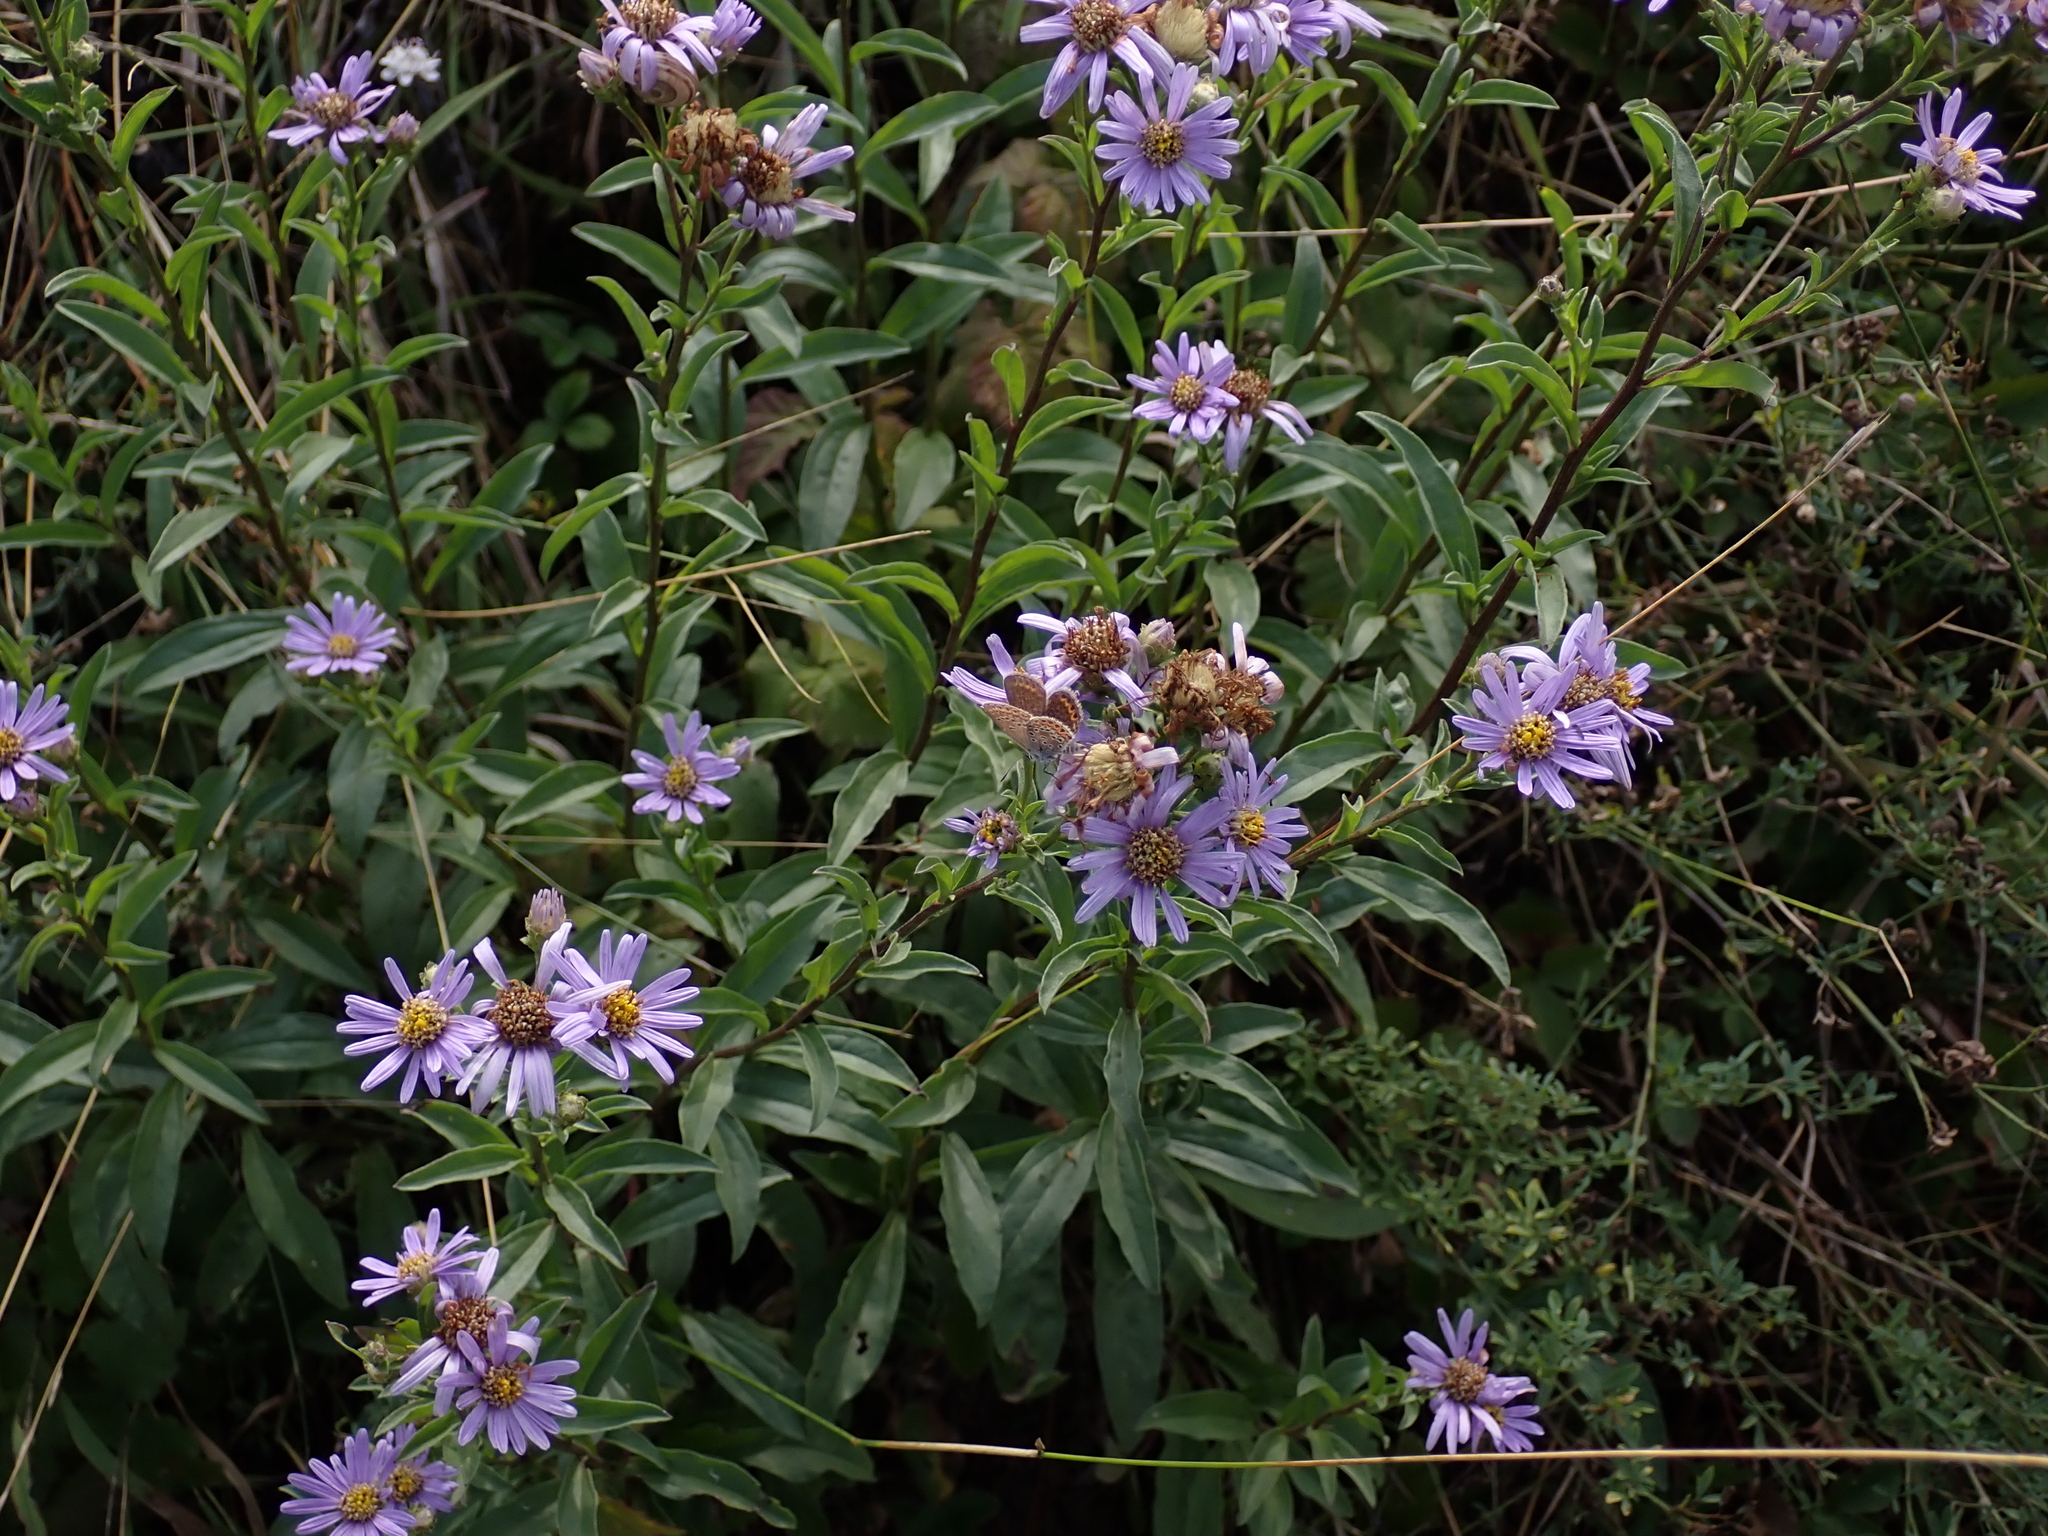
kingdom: Plantae
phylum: Tracheophyta
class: Magnoliopsida
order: Asterales
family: Asteraceae
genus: Aster
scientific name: Aster amellus
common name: European michaelmas daisy
